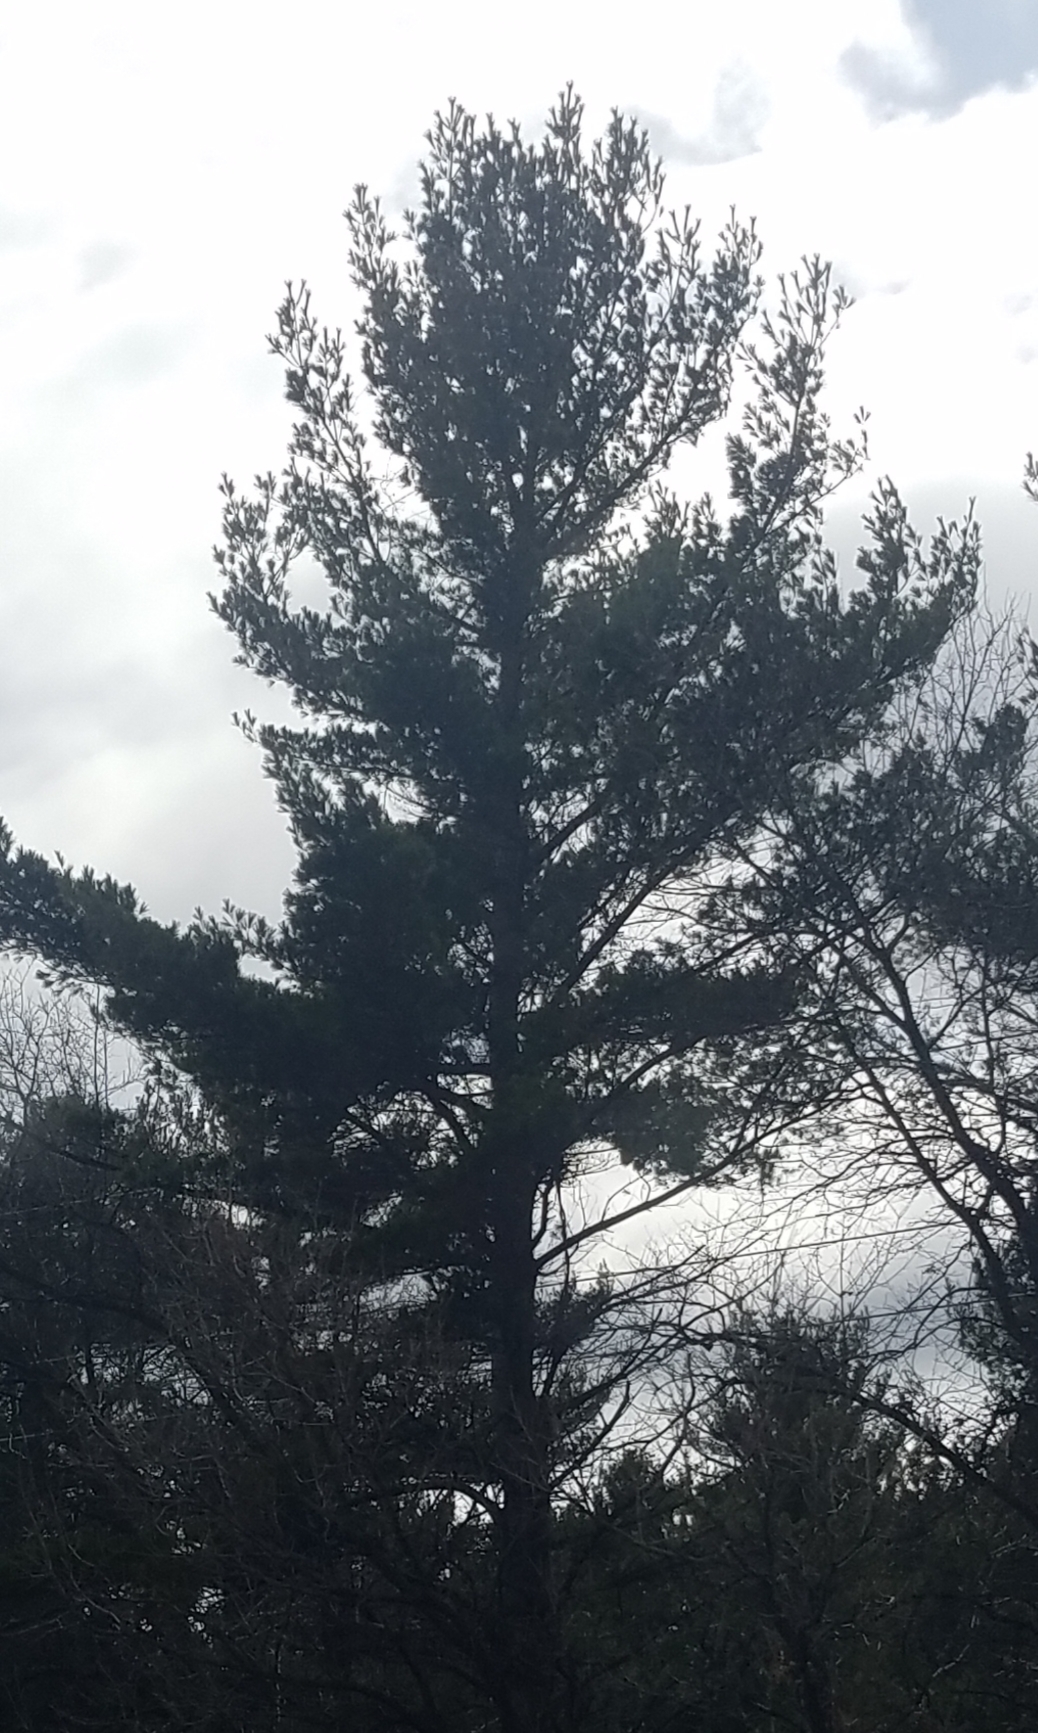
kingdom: Plantae
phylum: Tracheophyta
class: Pinopsida
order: Pinales
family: Pinaceae
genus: Pinus
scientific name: Pinus strobus
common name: Weymouth pine
